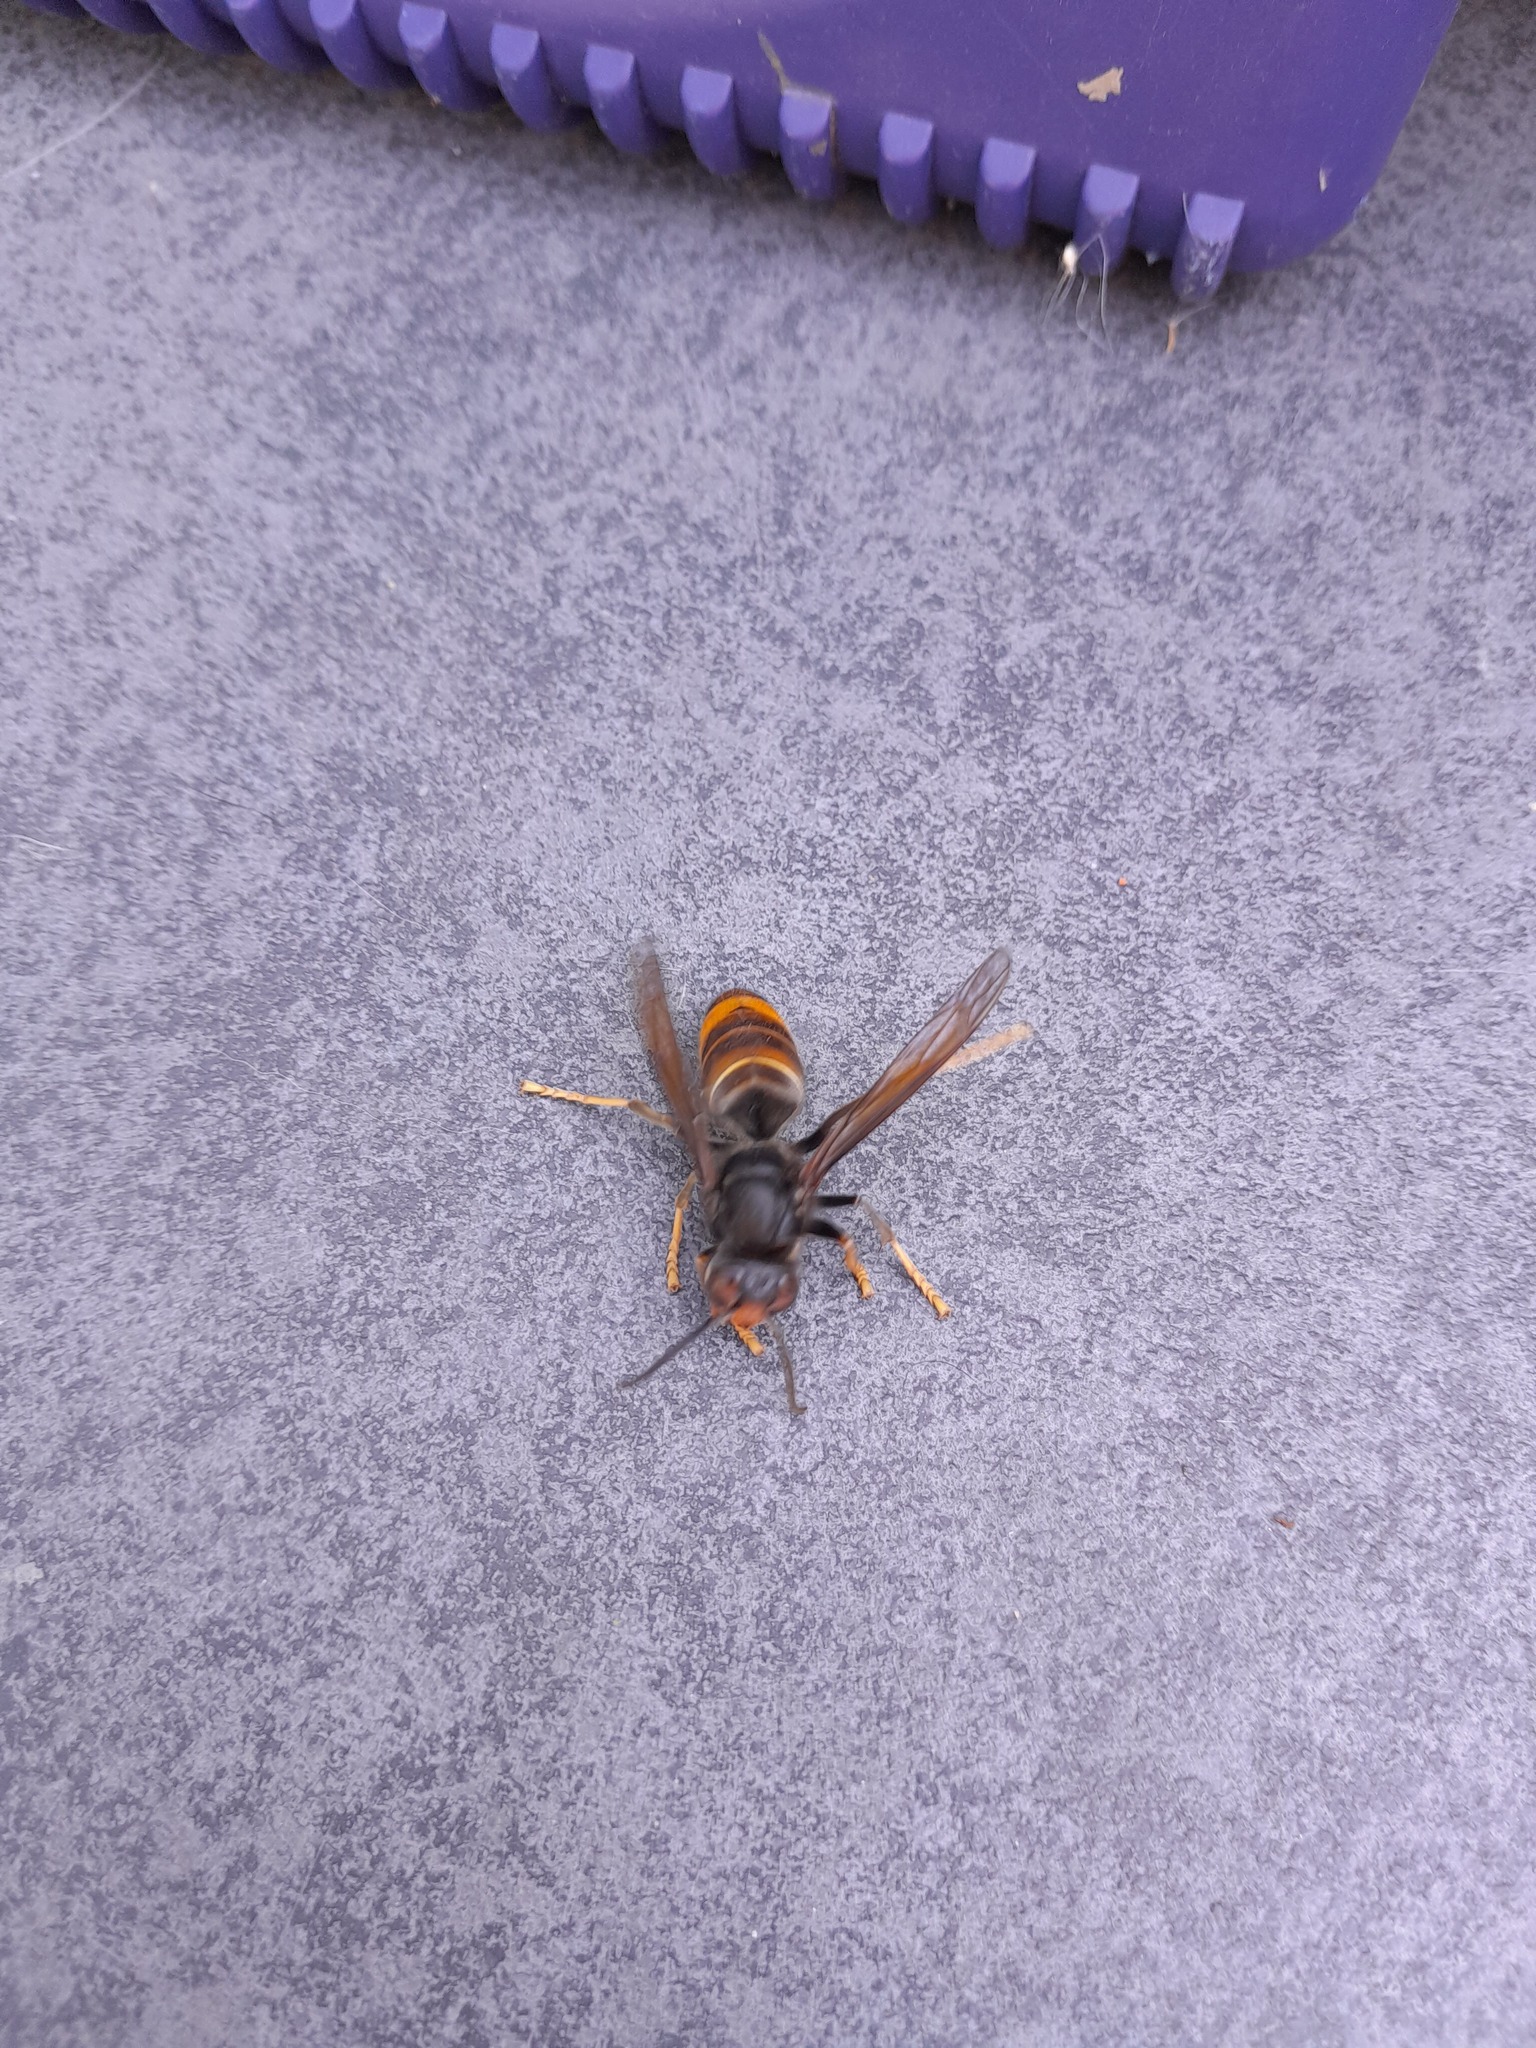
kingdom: Animalia
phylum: Arthropoda
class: Insecta
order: Hymenoptera
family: Vespidae
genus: Vespa
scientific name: Vespa velutina
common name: Asian hornet
